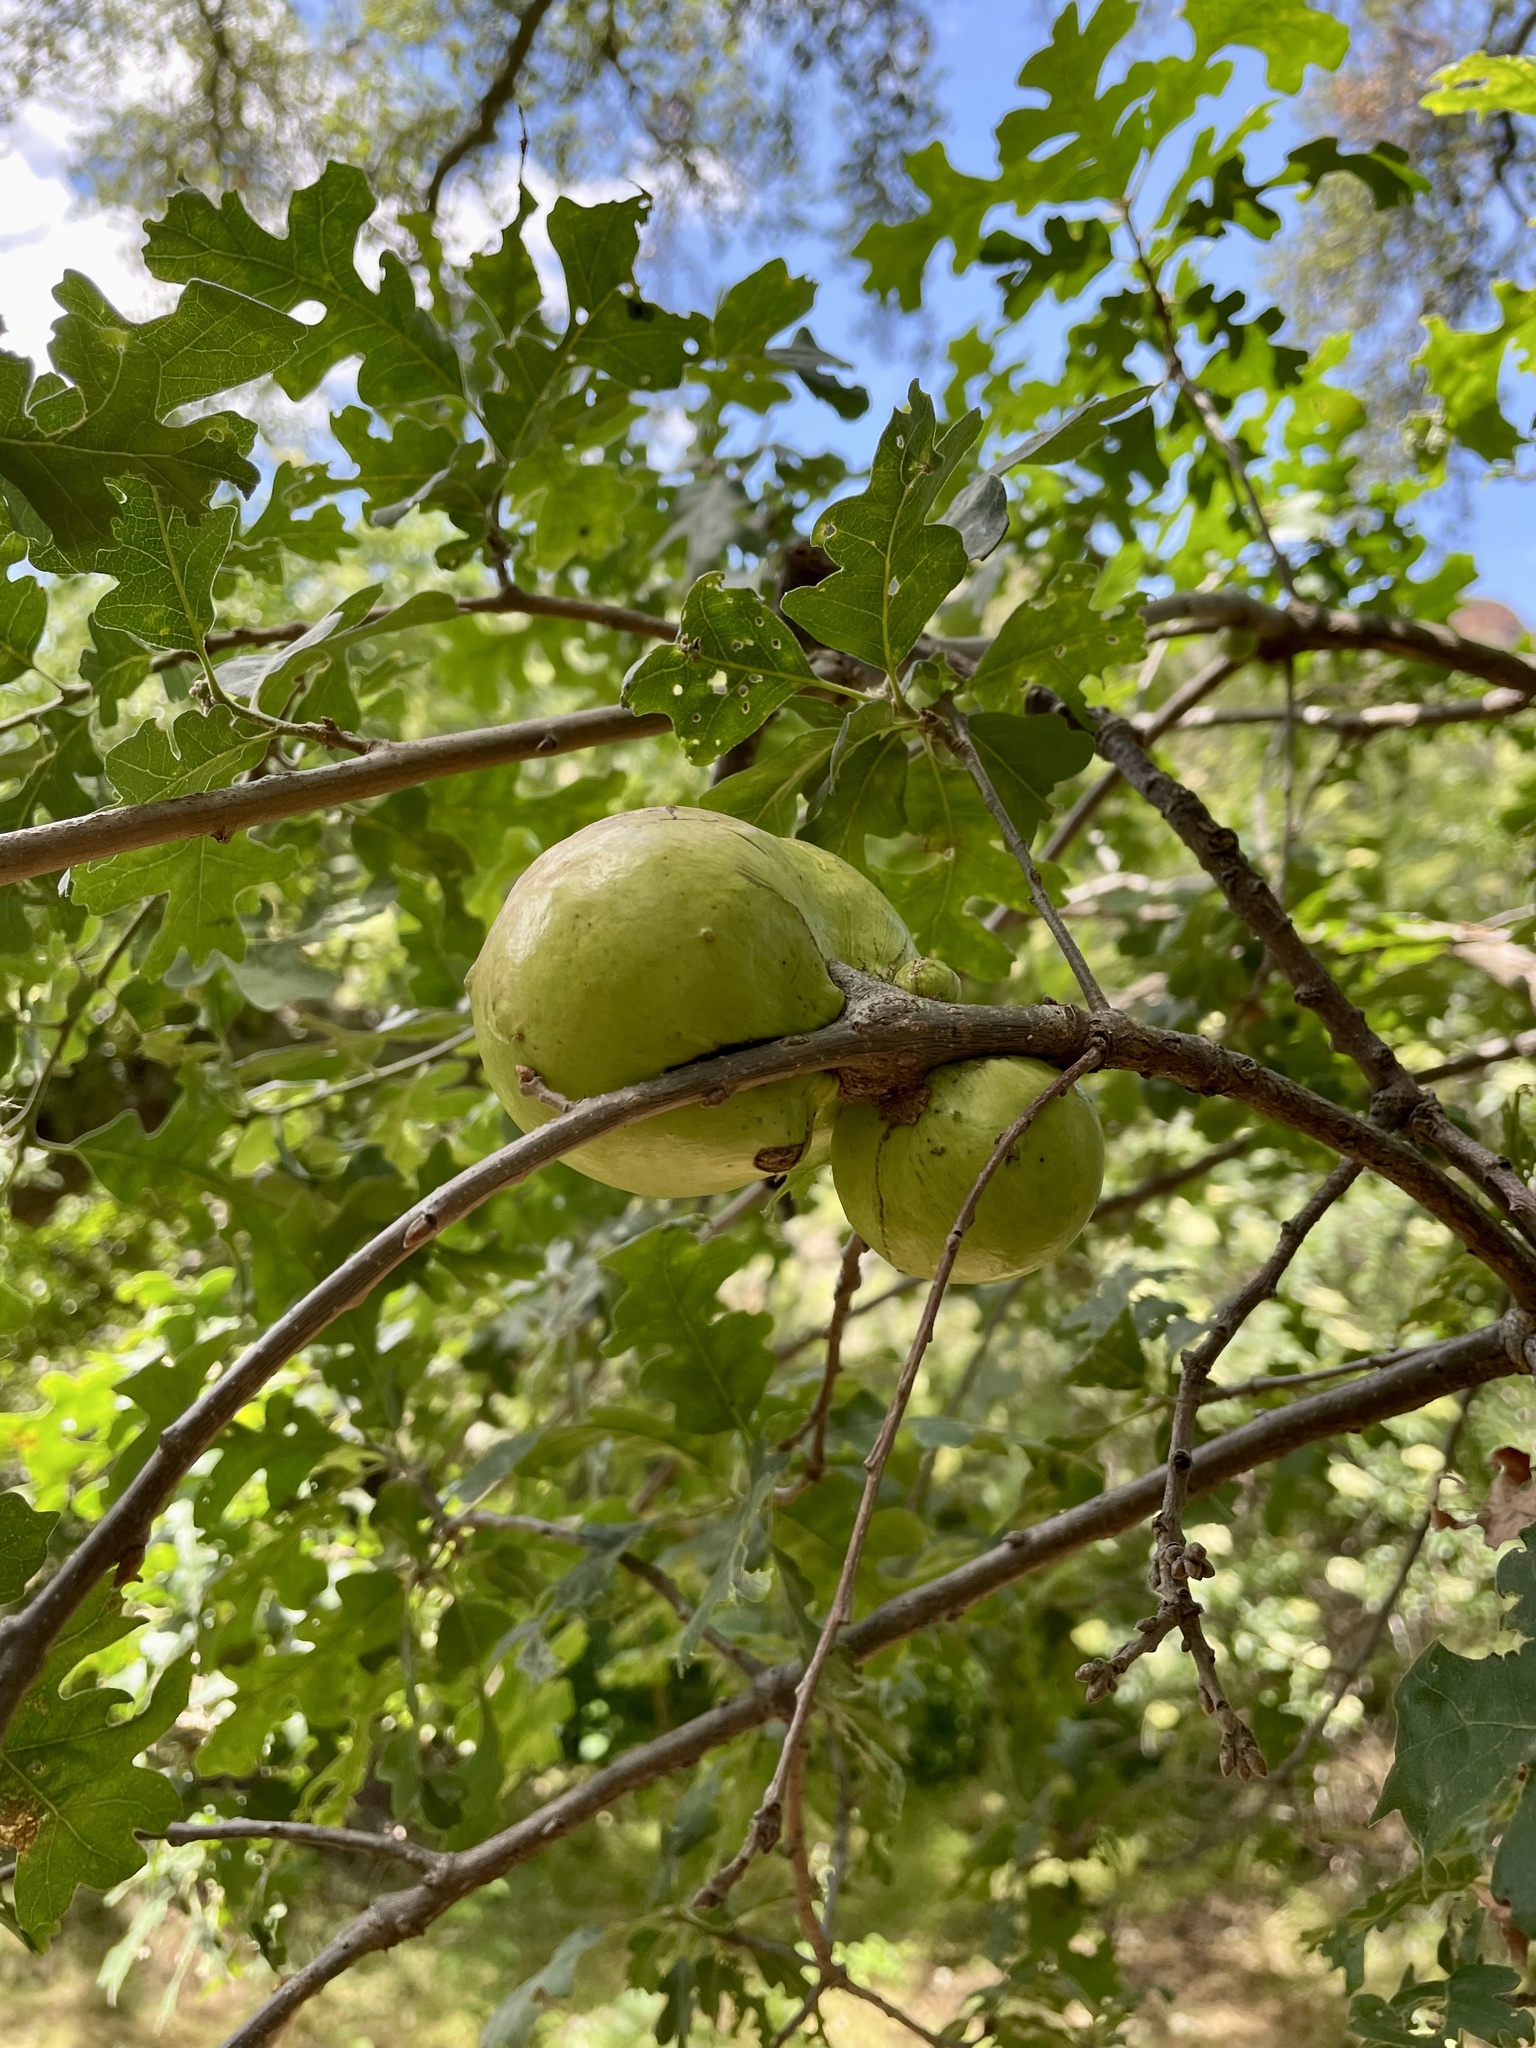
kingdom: Animalia
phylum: Arthropoda
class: Insecta
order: Hymenoptera
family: Cynipidae
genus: Andricus
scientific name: Andricus quercuscalifornicus
